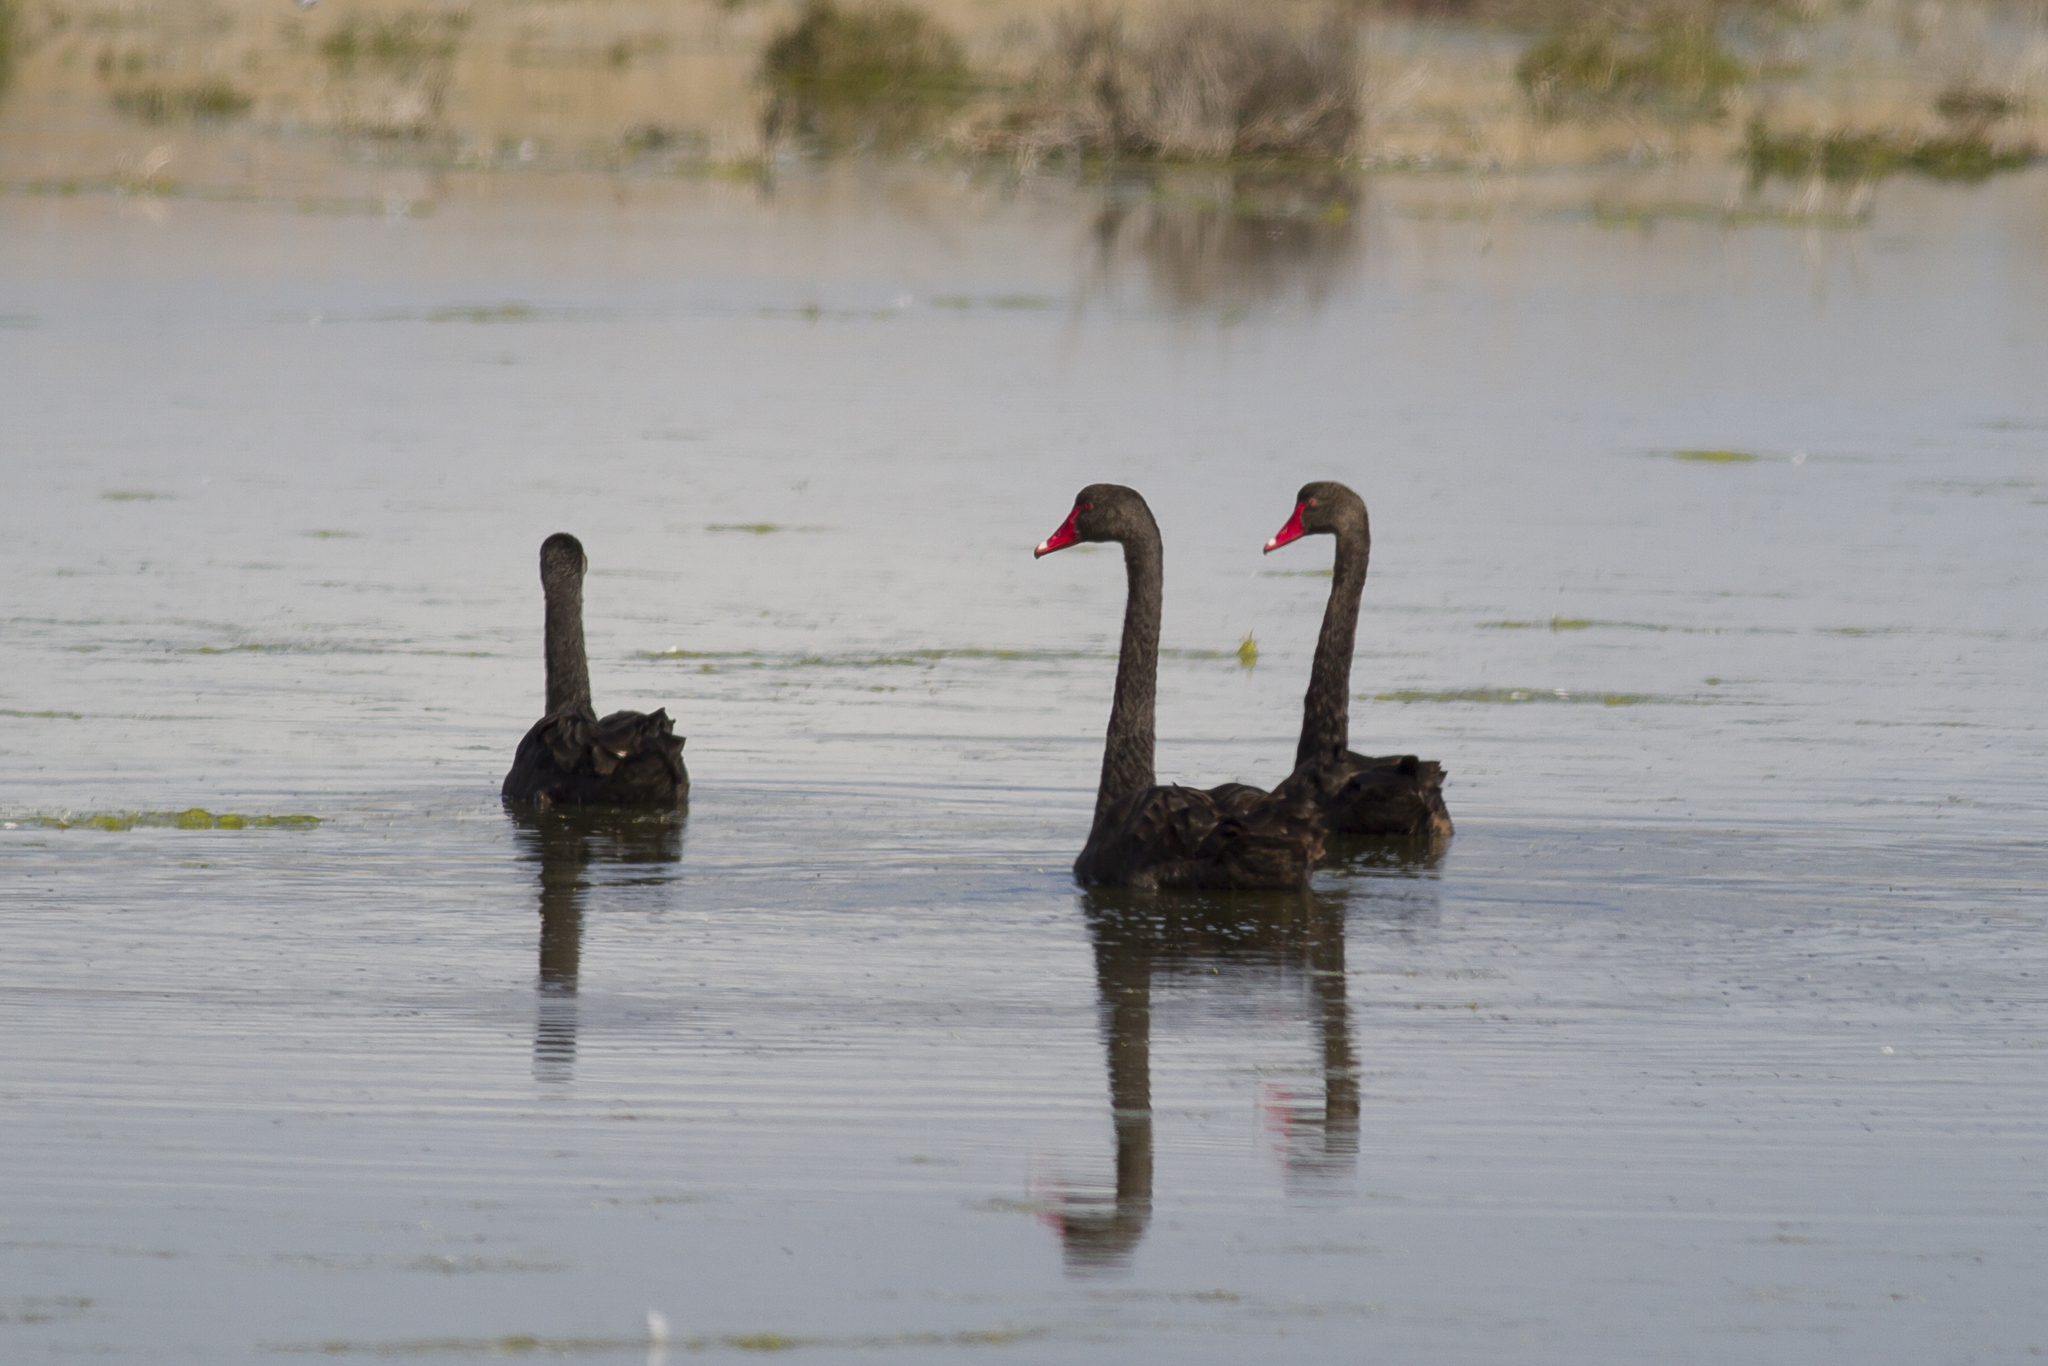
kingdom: Animalia
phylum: Chordata
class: Aves
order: Anseriformes
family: Anatidae
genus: Cygnus
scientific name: Cygnus atratus
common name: Black swan
